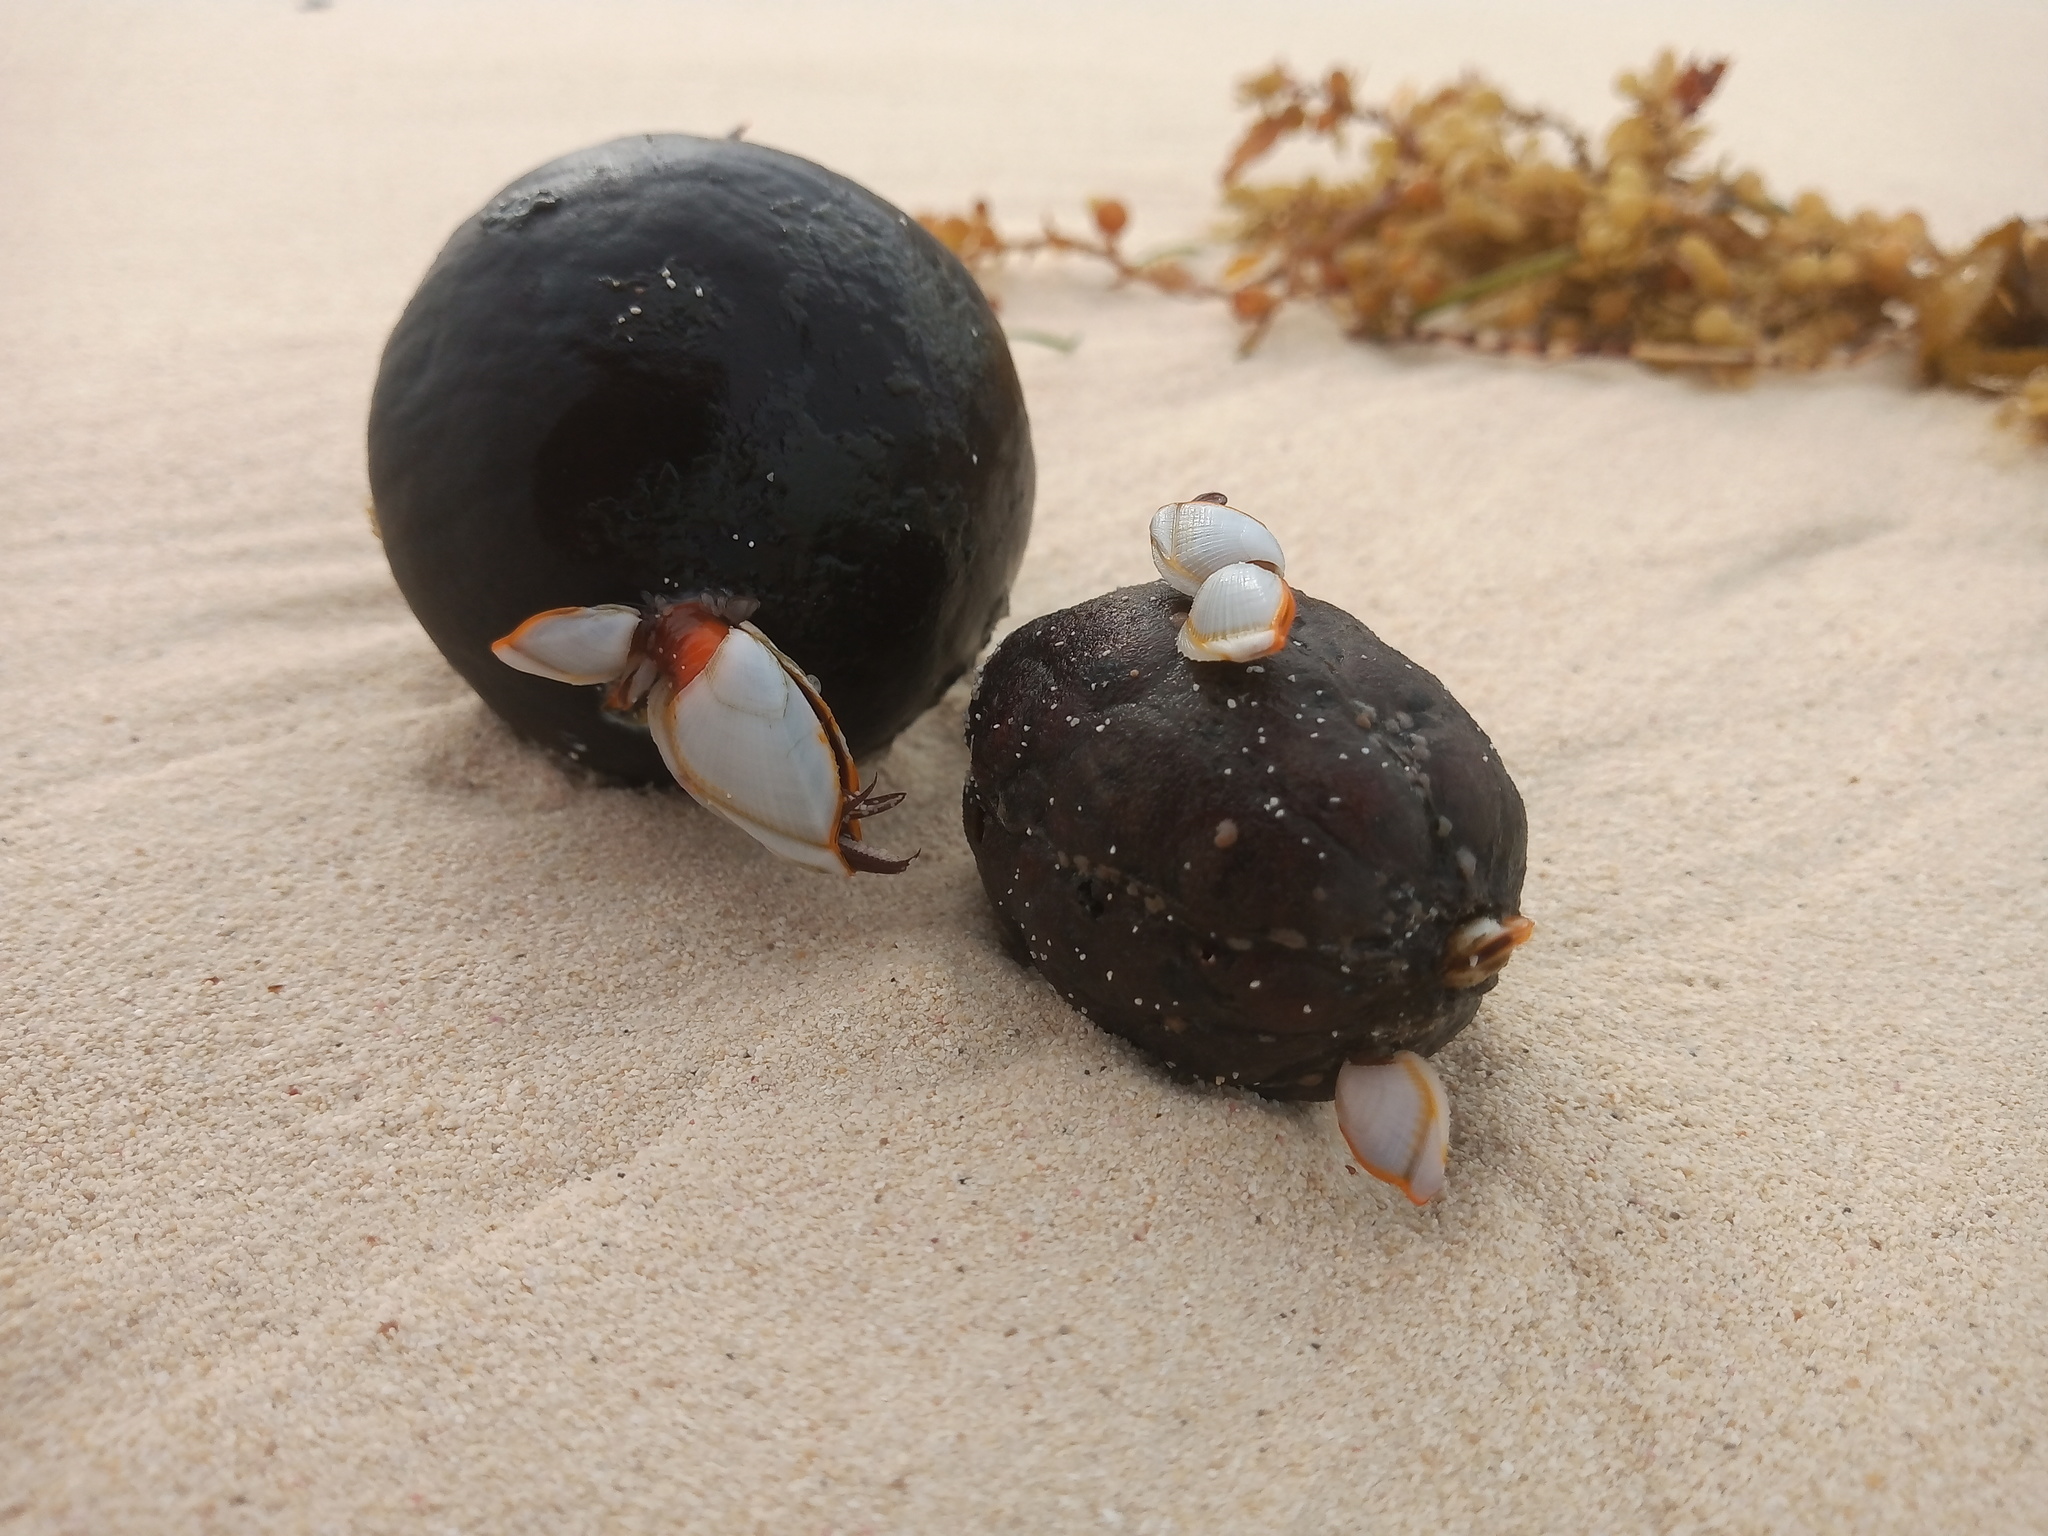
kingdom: Plantae
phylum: Tracheophyta
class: Liliopsida
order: Arecales
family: Arecaceae
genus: Manicaria
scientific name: Manicaria saccifera
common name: Sea coconut
